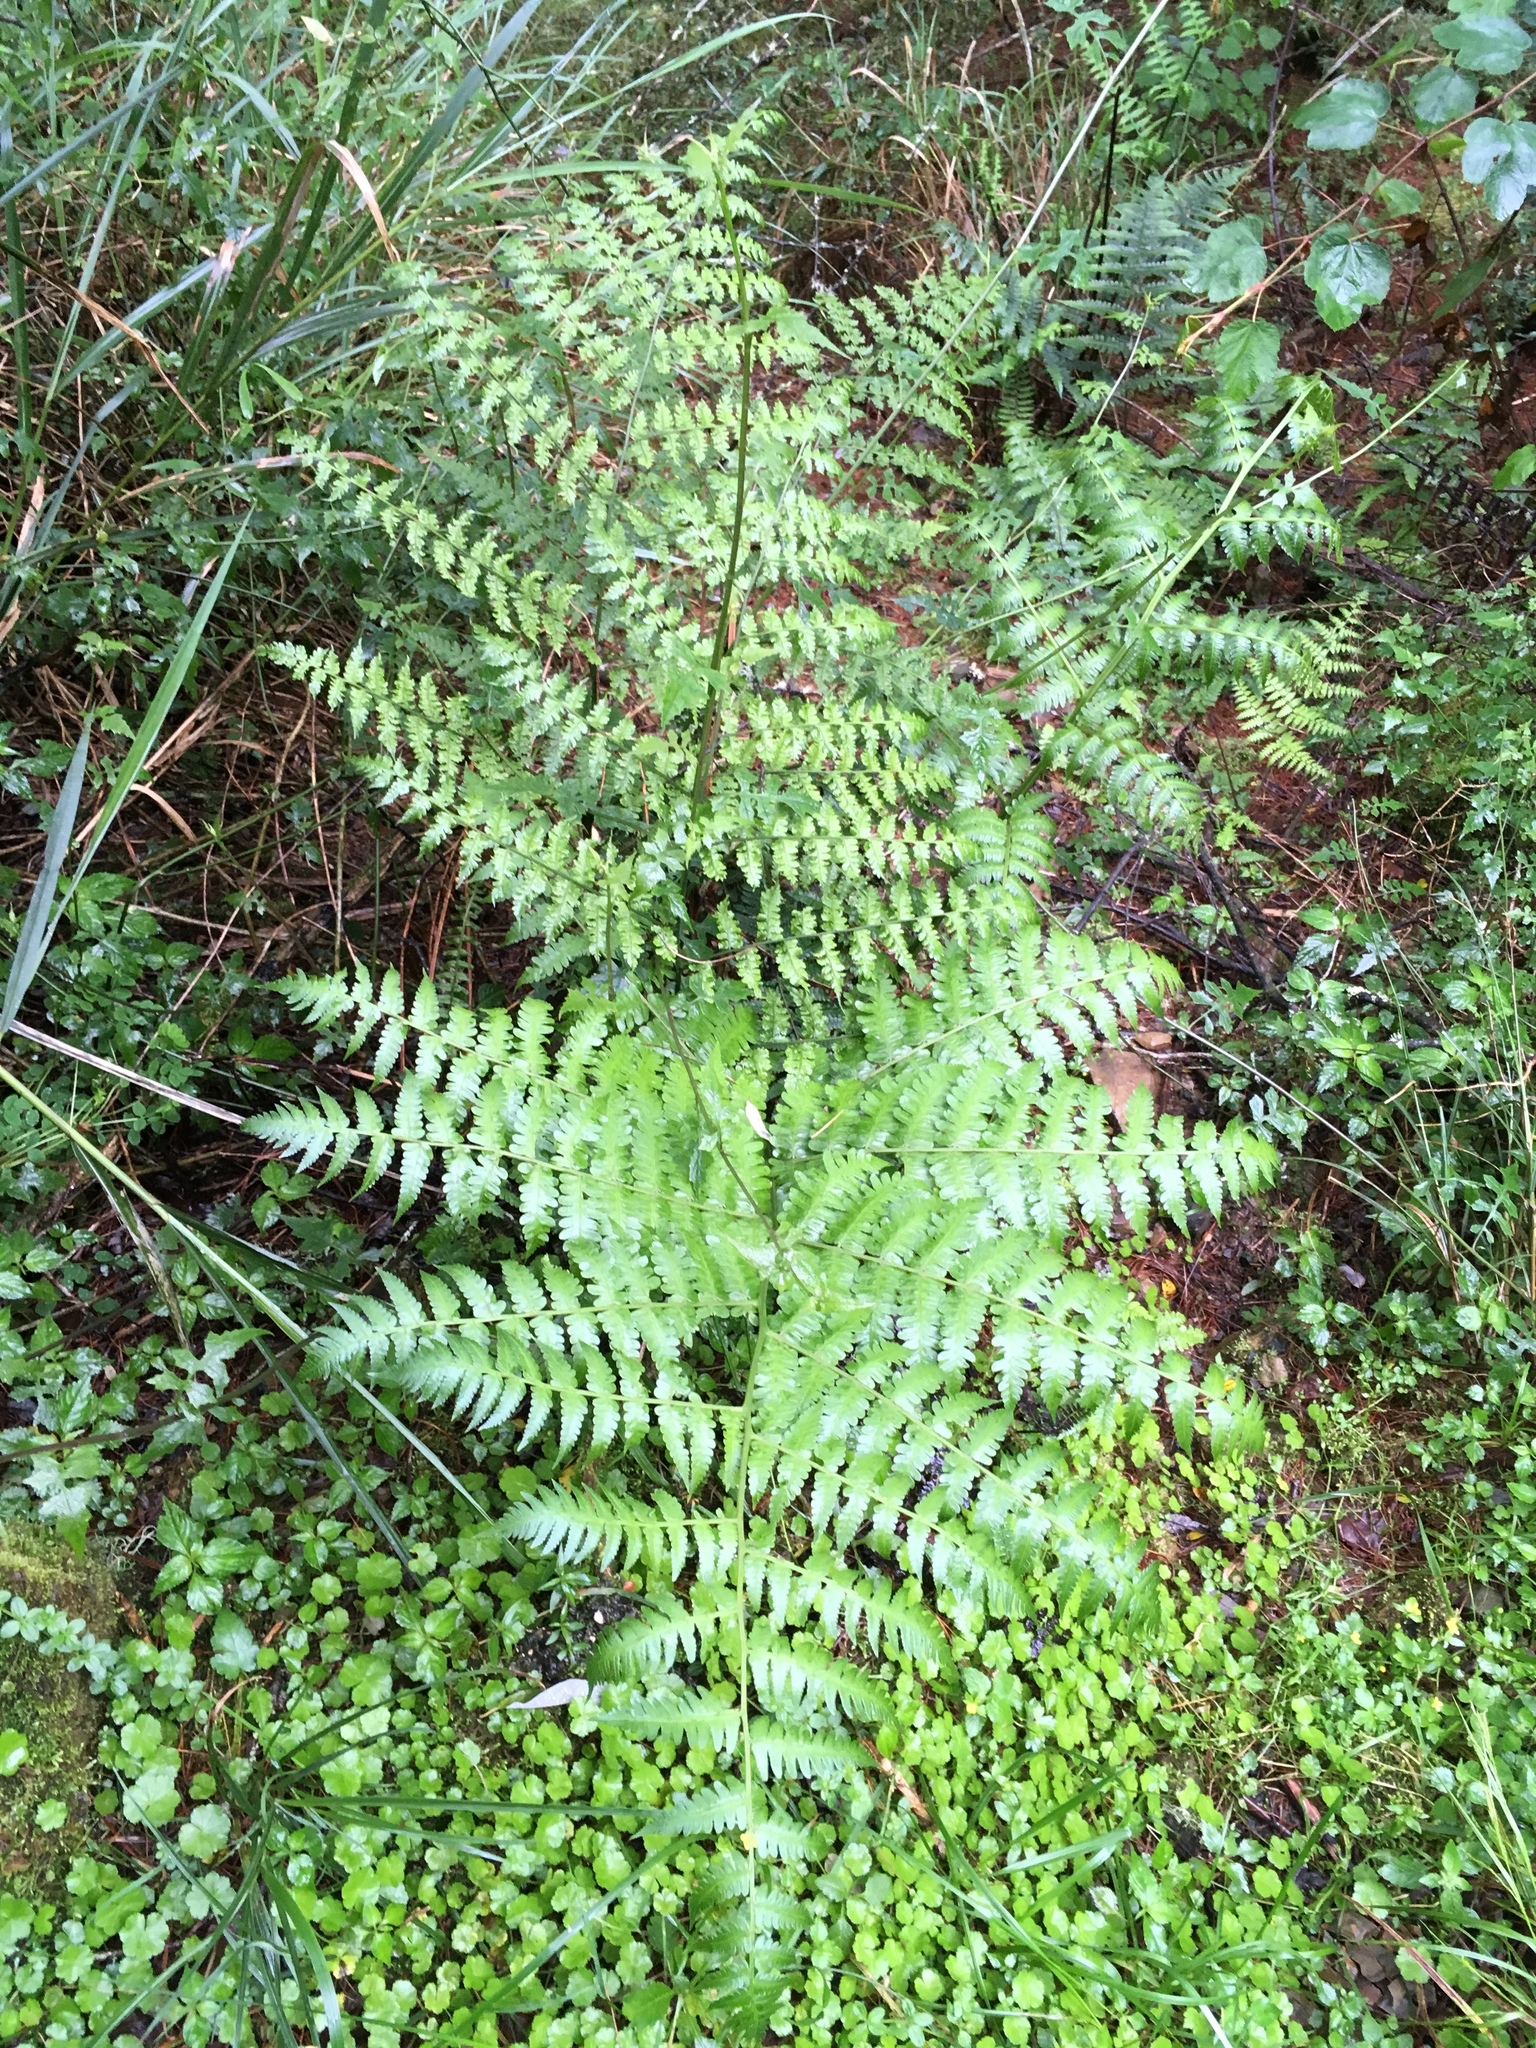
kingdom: Plantae
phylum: Tracheophyta
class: Polypodiopsida
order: Polypodiales
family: Athyriaceae
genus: Diplazium
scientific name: Diplazium pseudodoederleinii
